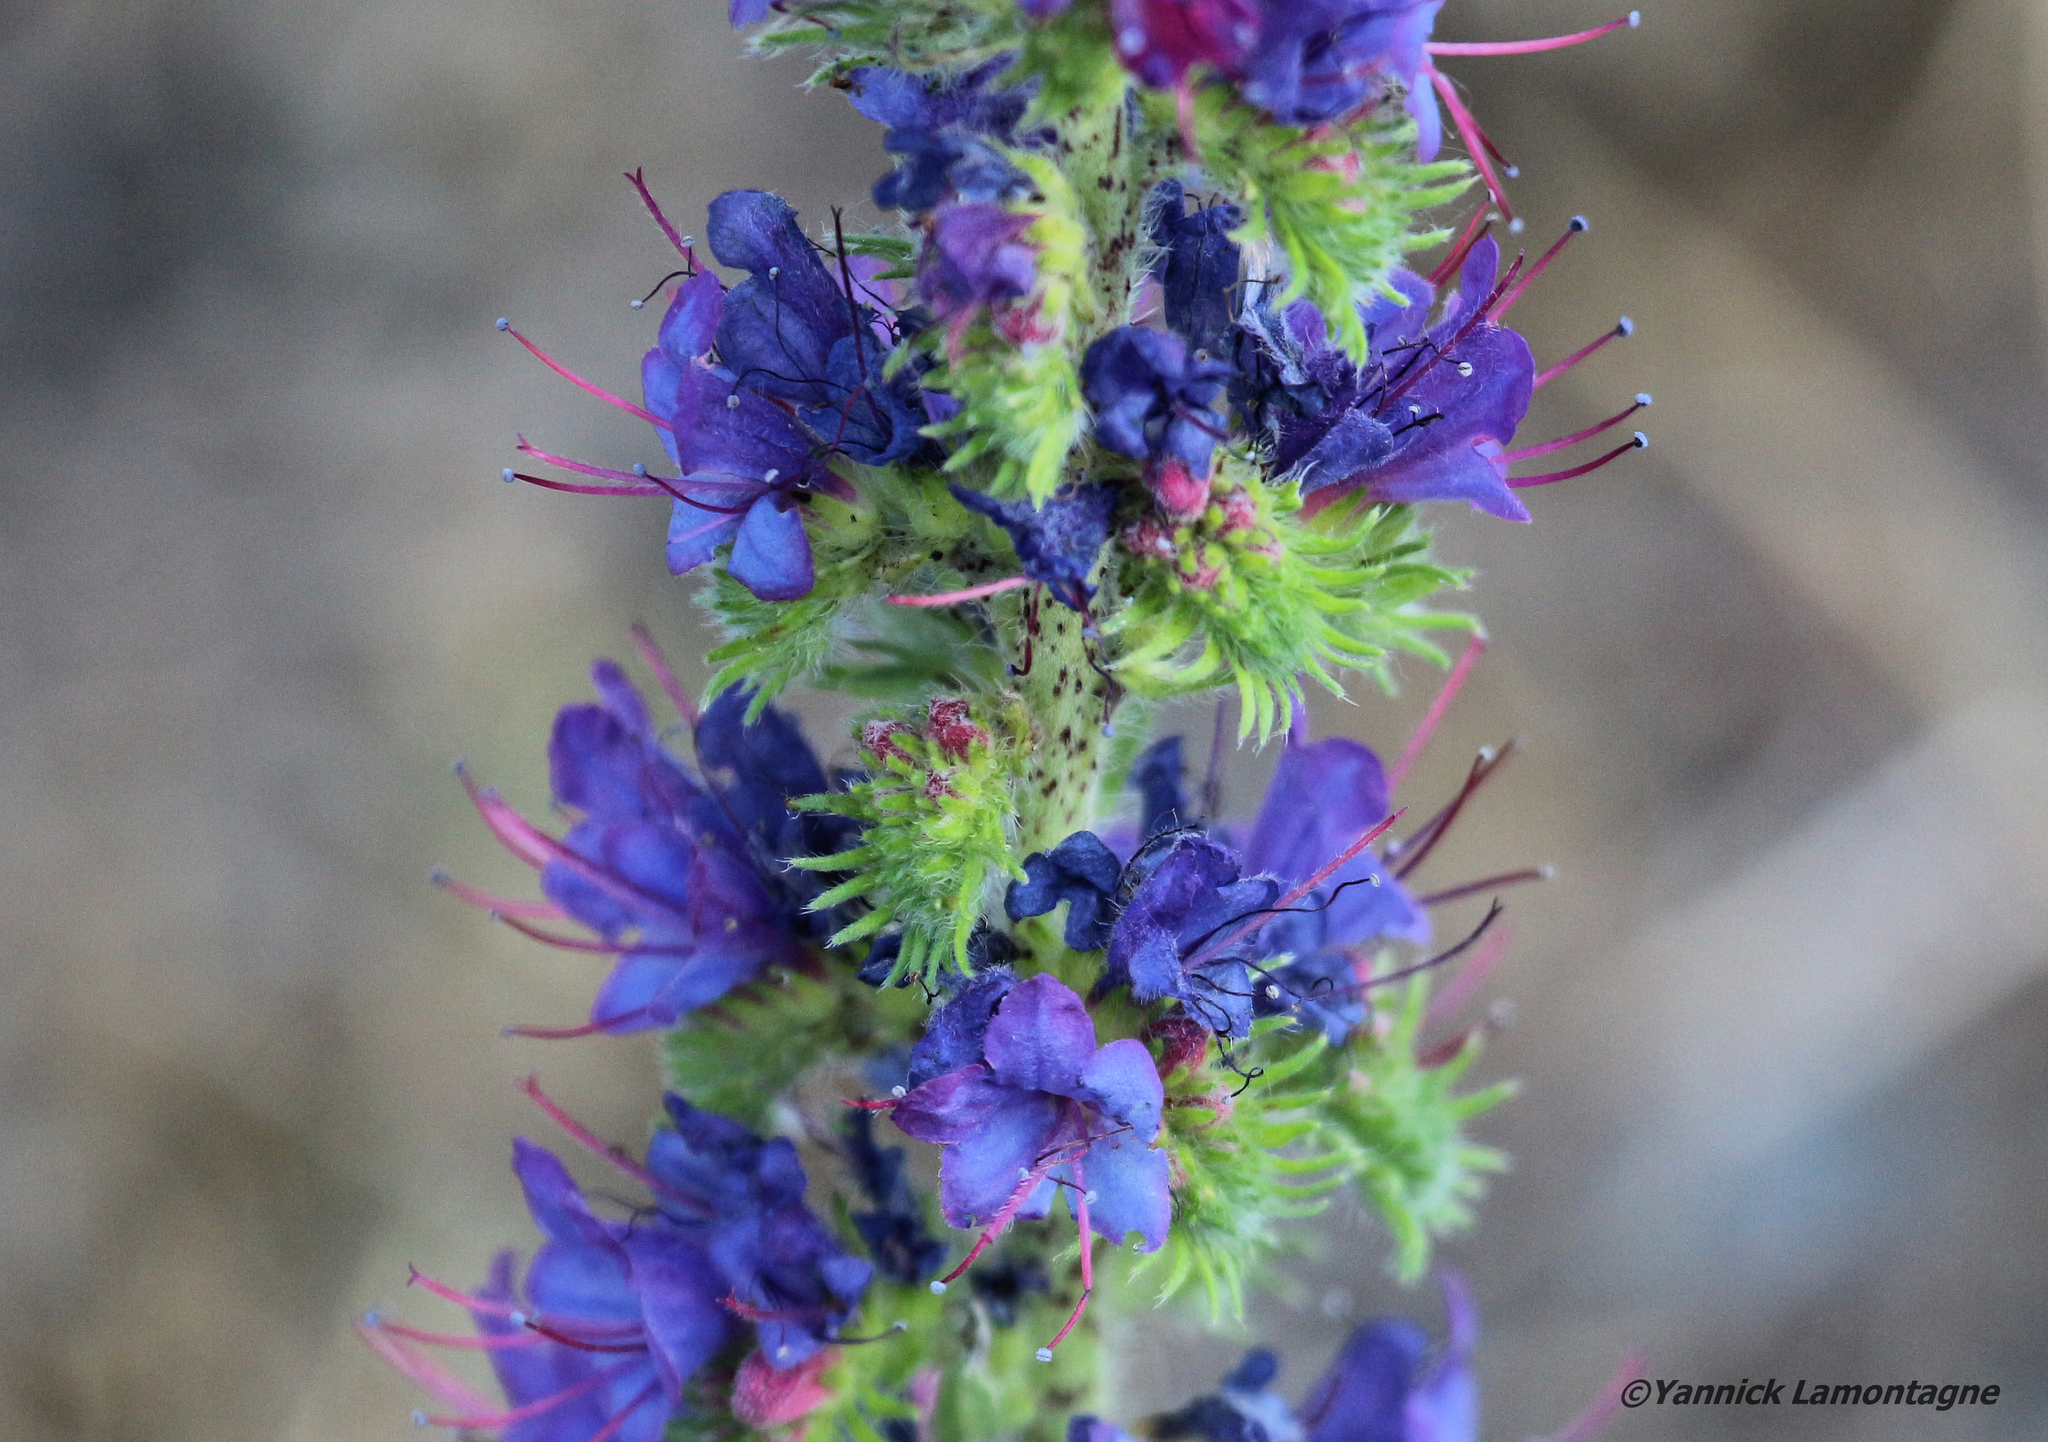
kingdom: Plantae
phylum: Tracheophyta
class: Magnoliopsida
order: Boraginales
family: Boraginaceae
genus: Echium
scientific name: Echium vulgare
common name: Common viper's bugloss
